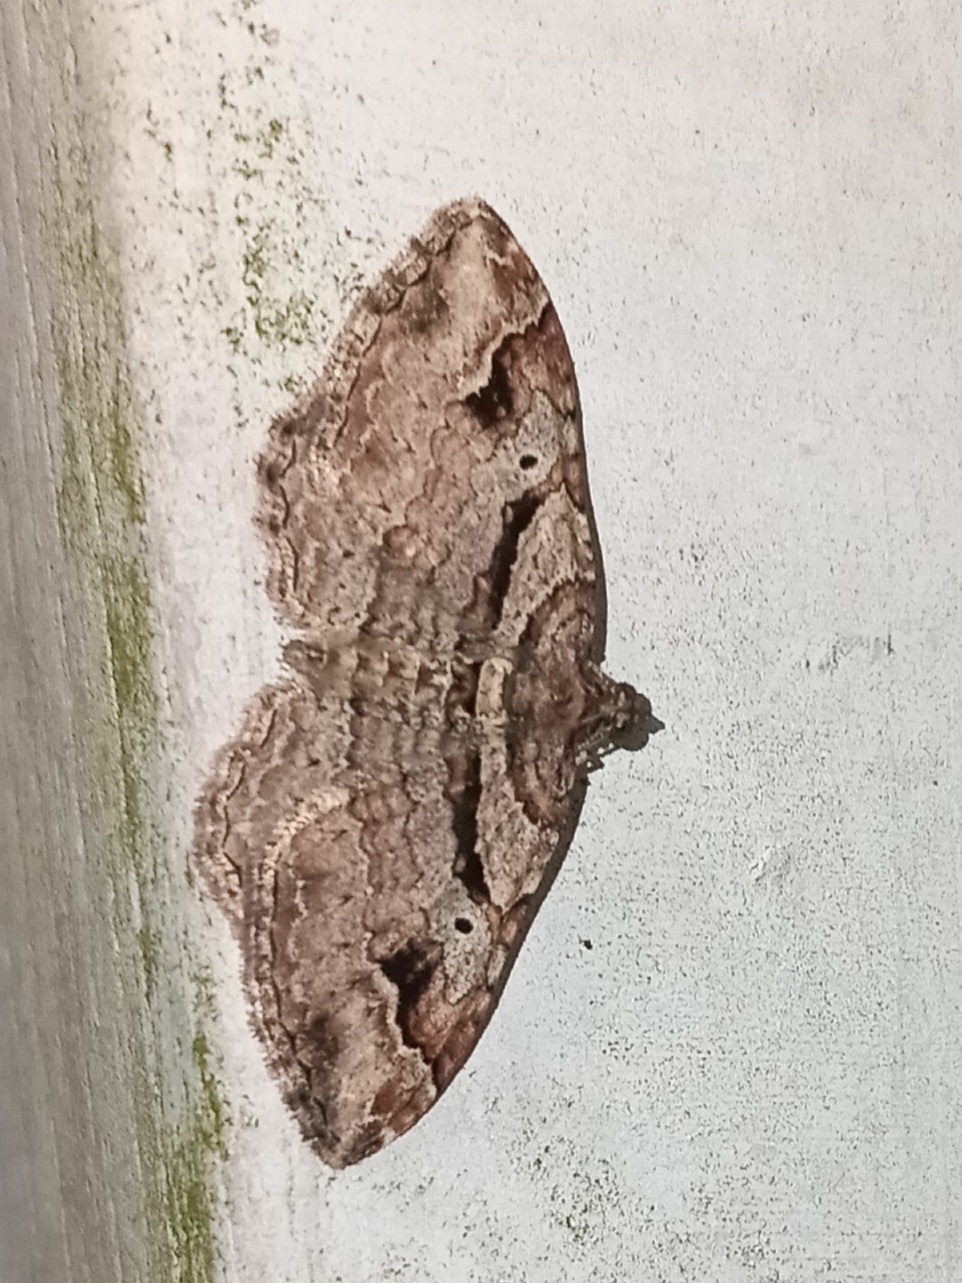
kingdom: Animalia
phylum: Arthropoda
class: Insecta
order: Lepidoptera
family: Geometridae
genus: Costaconvexa
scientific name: Costaconvexa centrostrigaria
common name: Bent-line carpet
